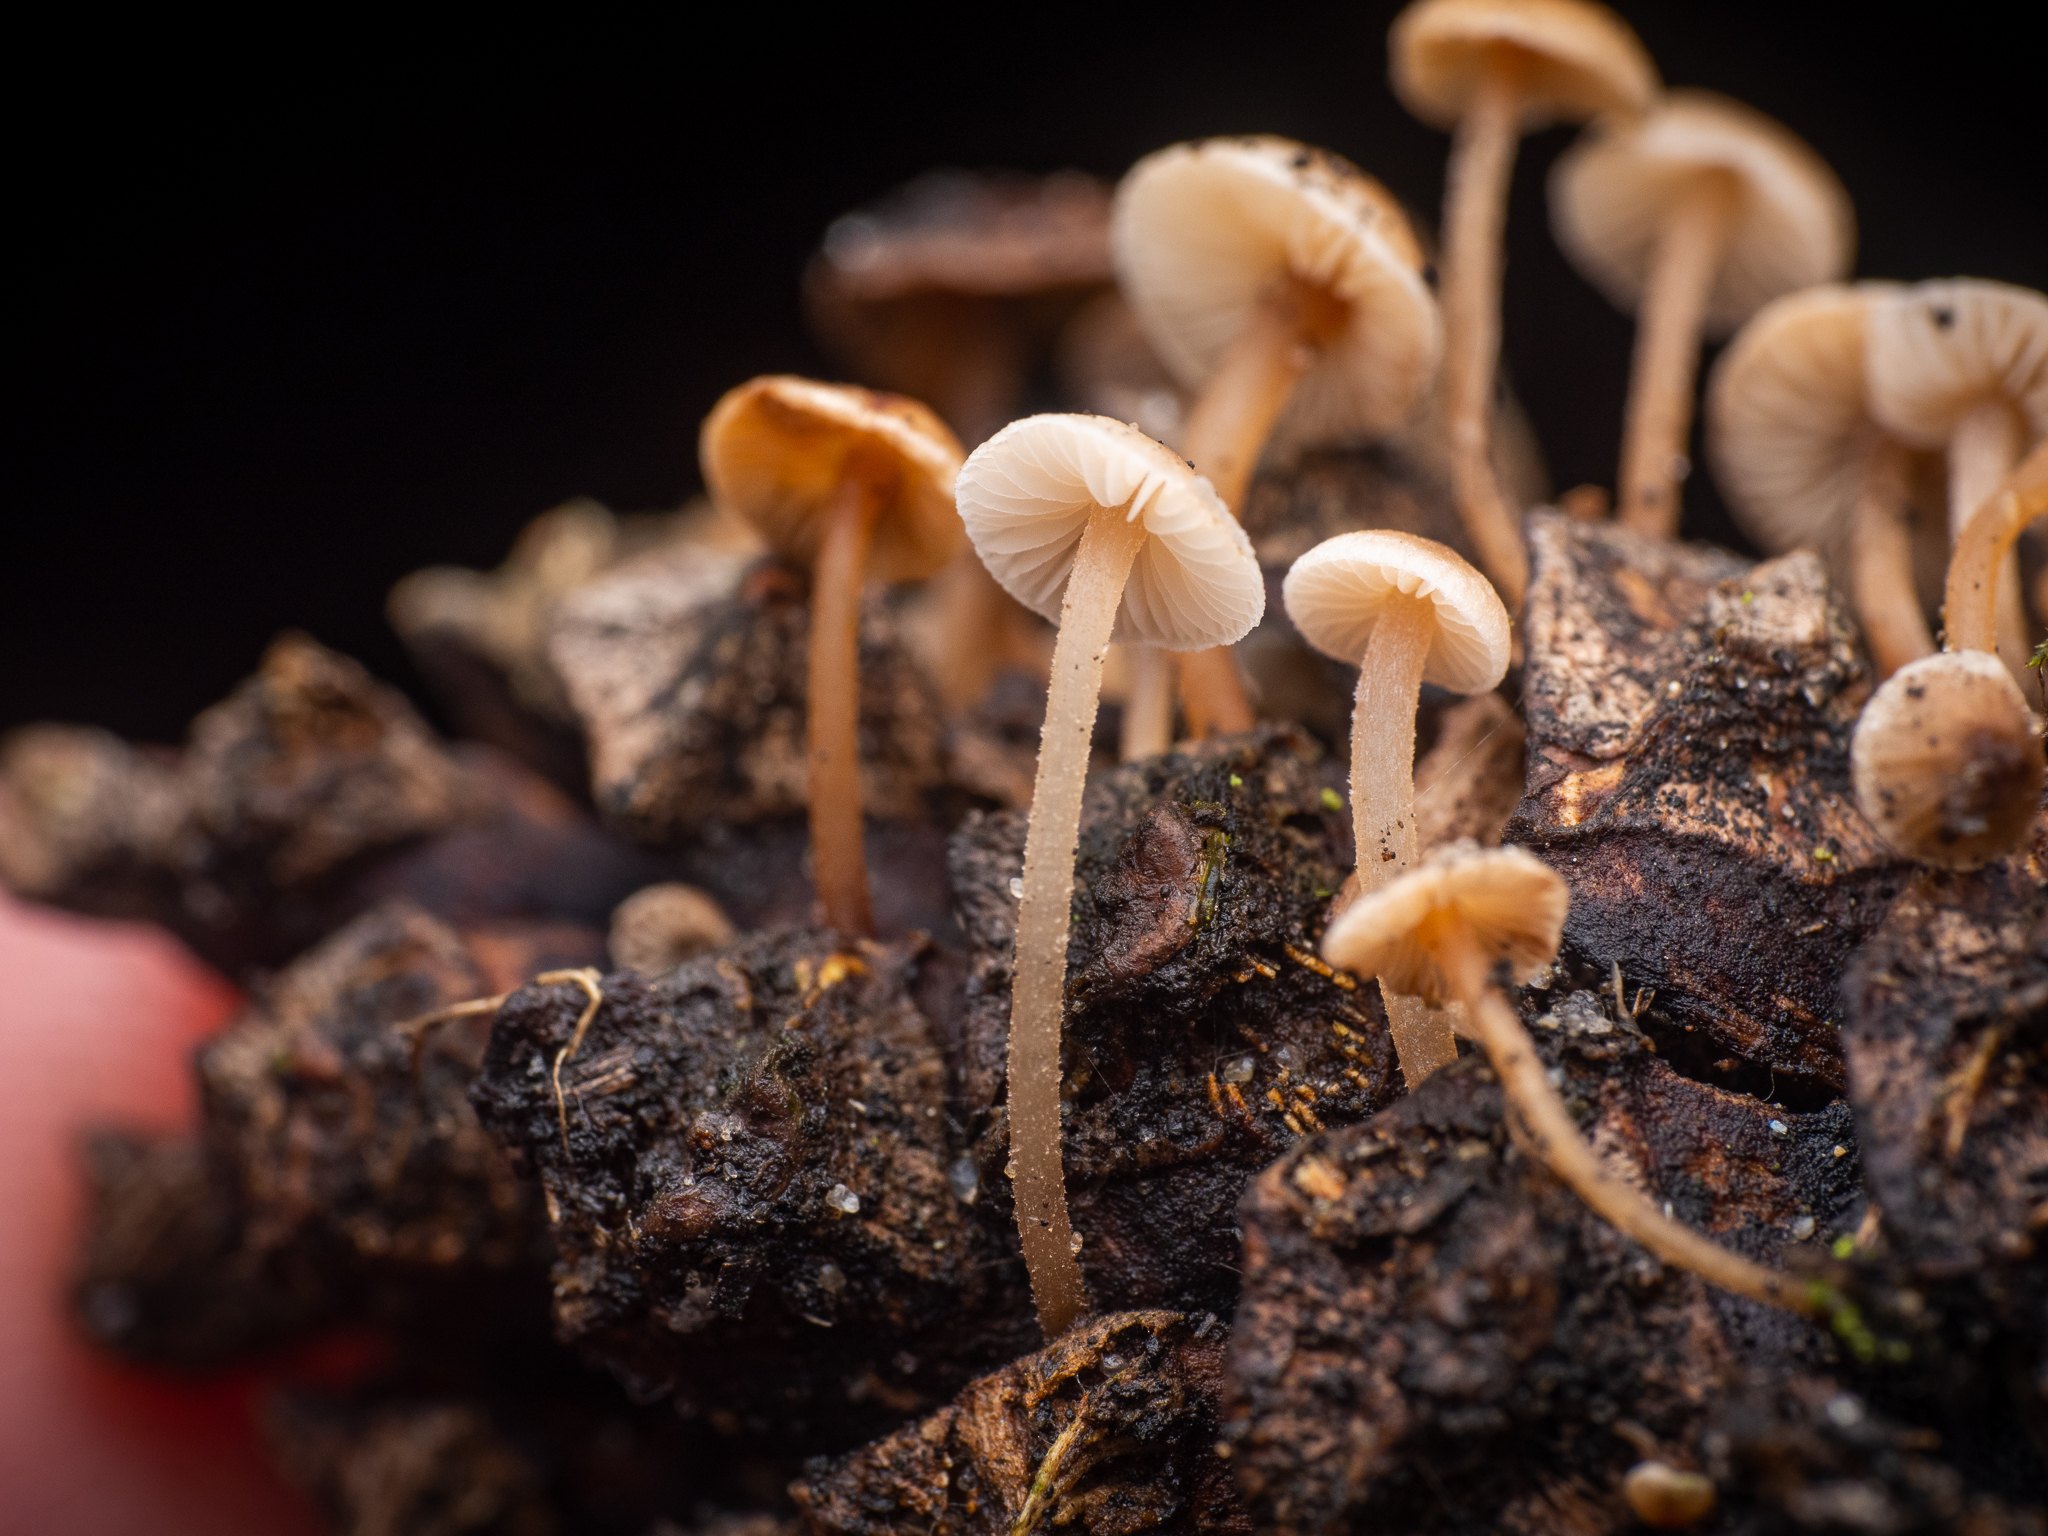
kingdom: Fungi
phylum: Basidiomycota
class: Agaricomycetes
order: Agaricales
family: Marasmiaceae
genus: Baeospora
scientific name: Baeospora myosura
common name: Conifercone cap
